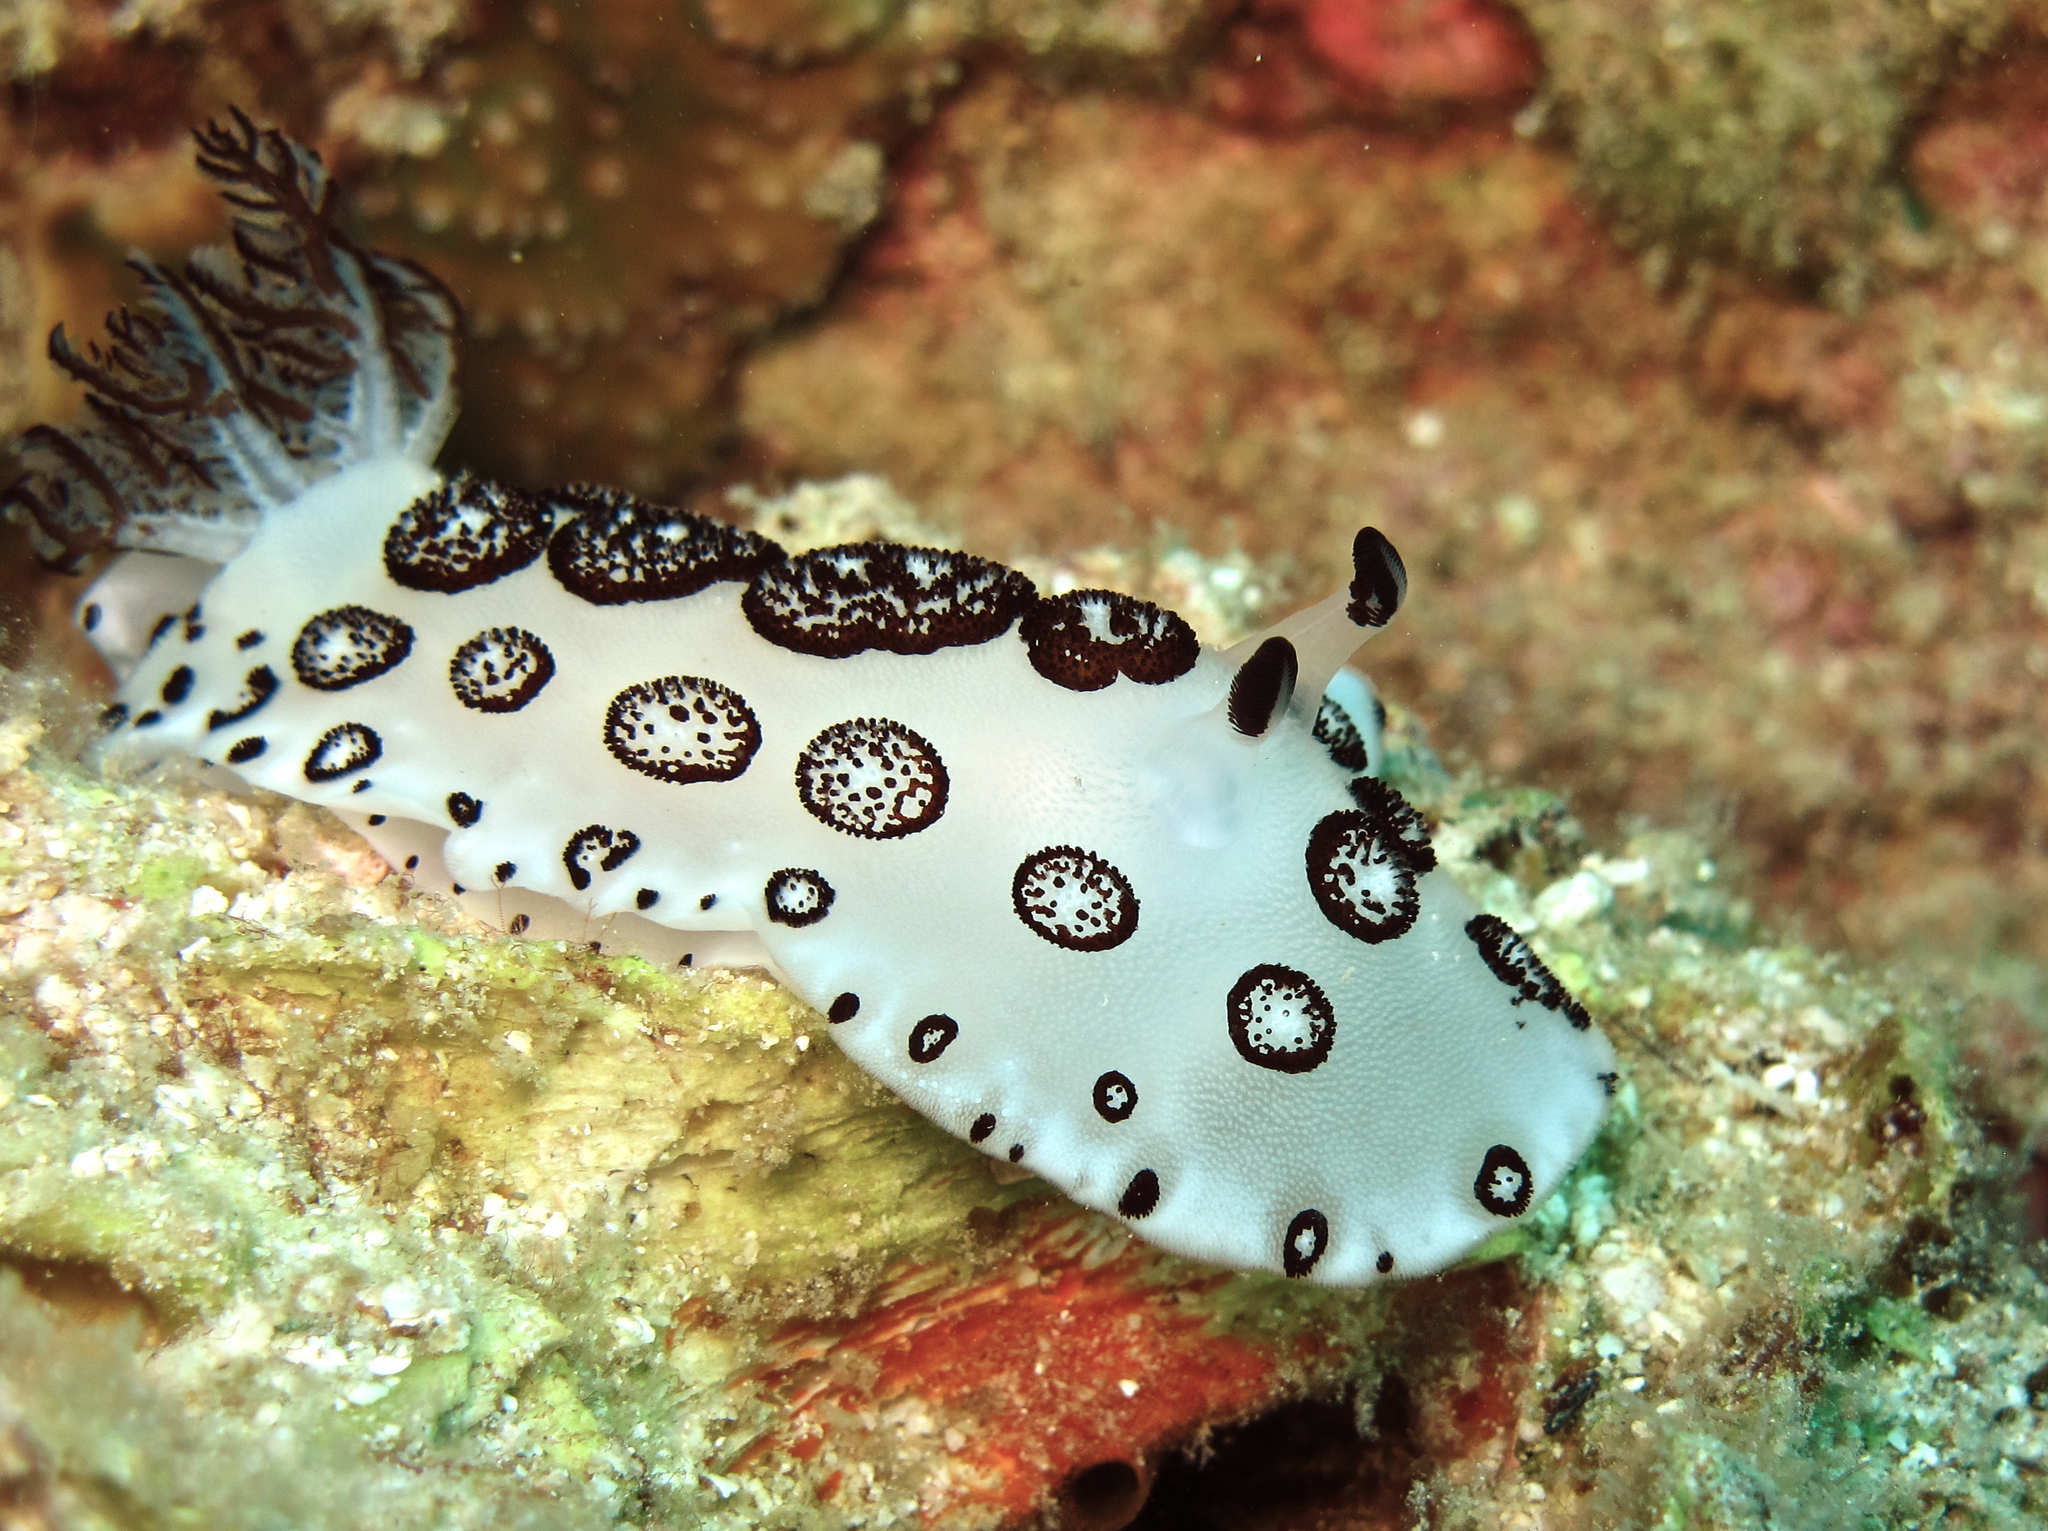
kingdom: Animalia
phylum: Mollusca
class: Gastropoda
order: Nudibranchia
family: Discodorididae
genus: Jorunna
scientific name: Jorunna funebris
